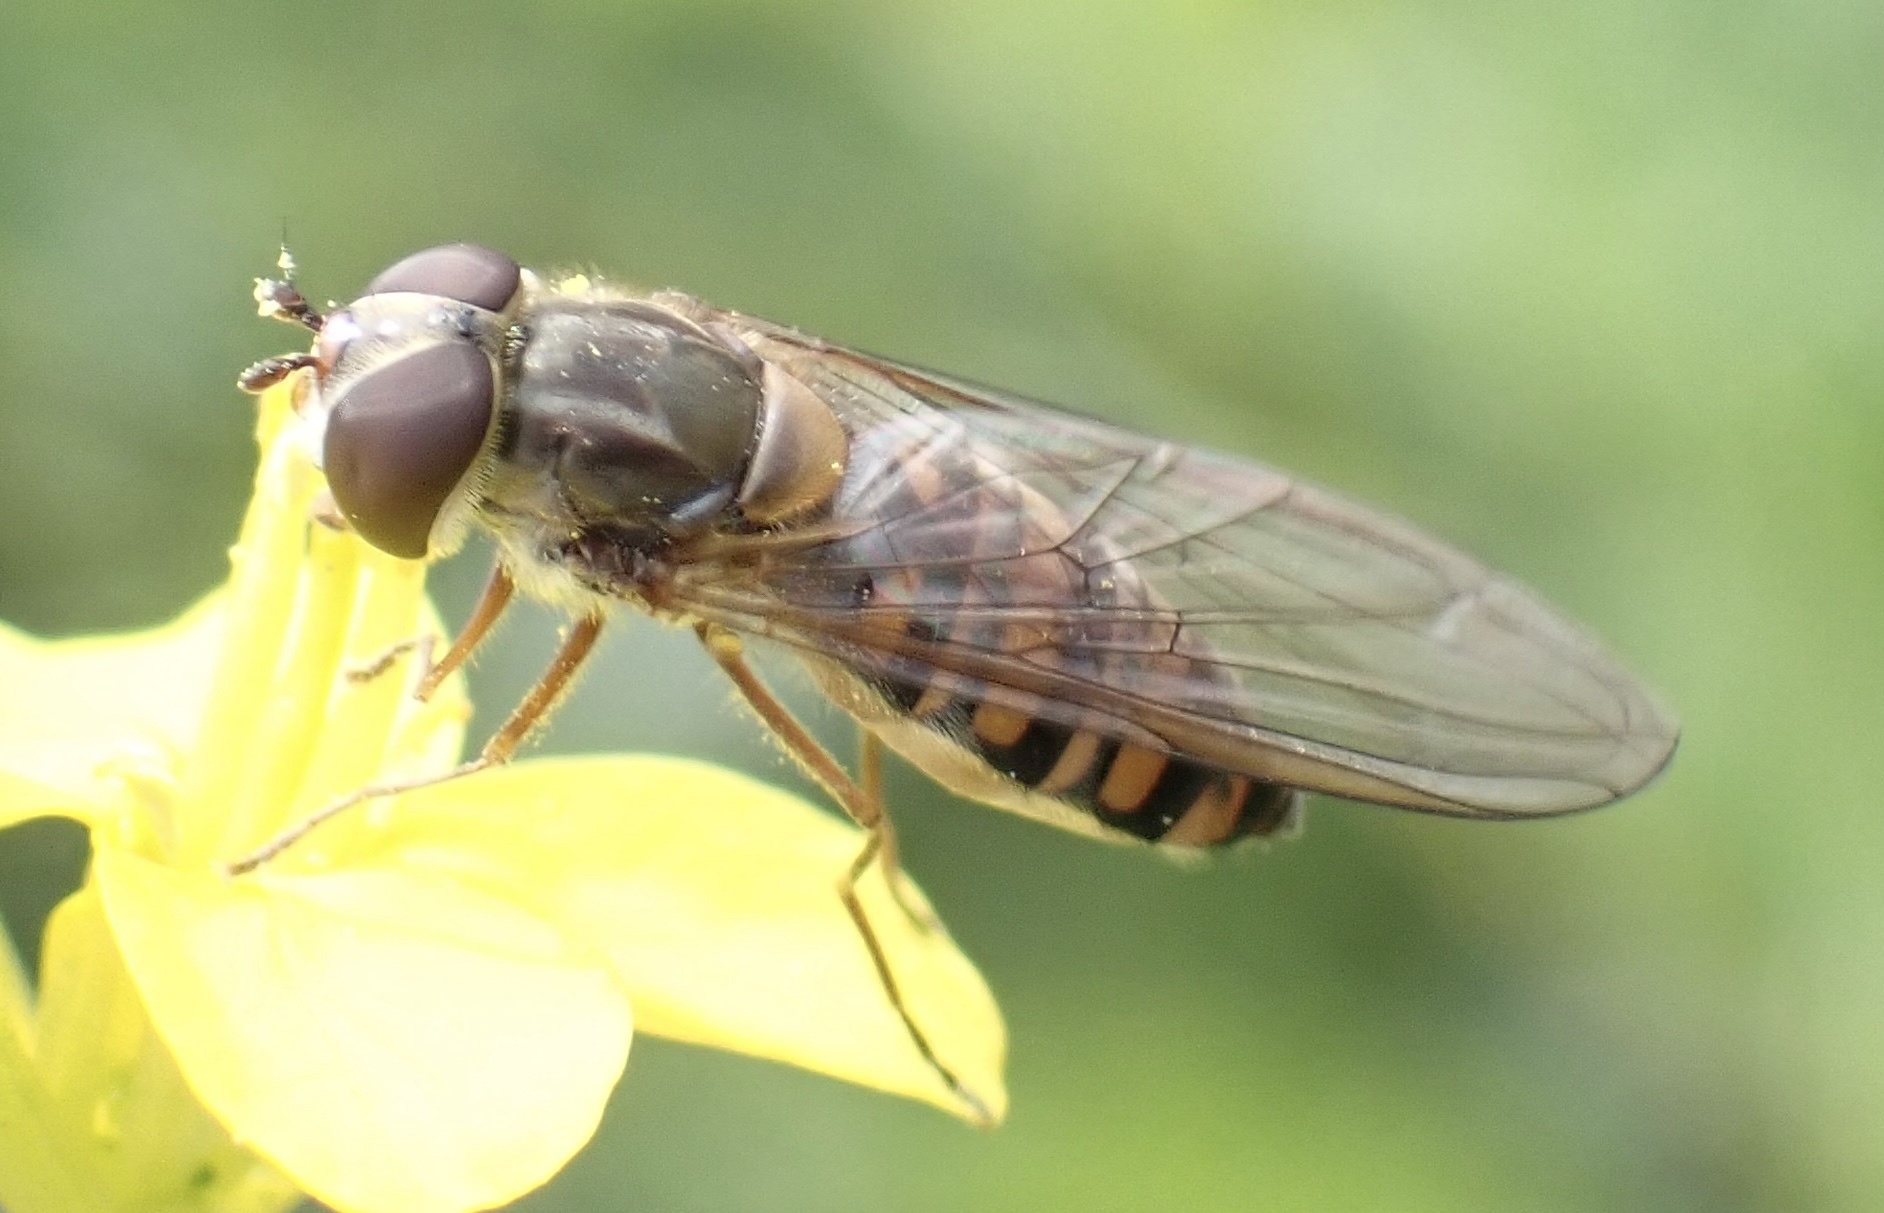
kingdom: Animalia
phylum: Arthropoda
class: Insecta
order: Diptera
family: Syrphidae
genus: Episyrphus
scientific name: Episyrphus balteatus
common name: Marmalade hoverfly
